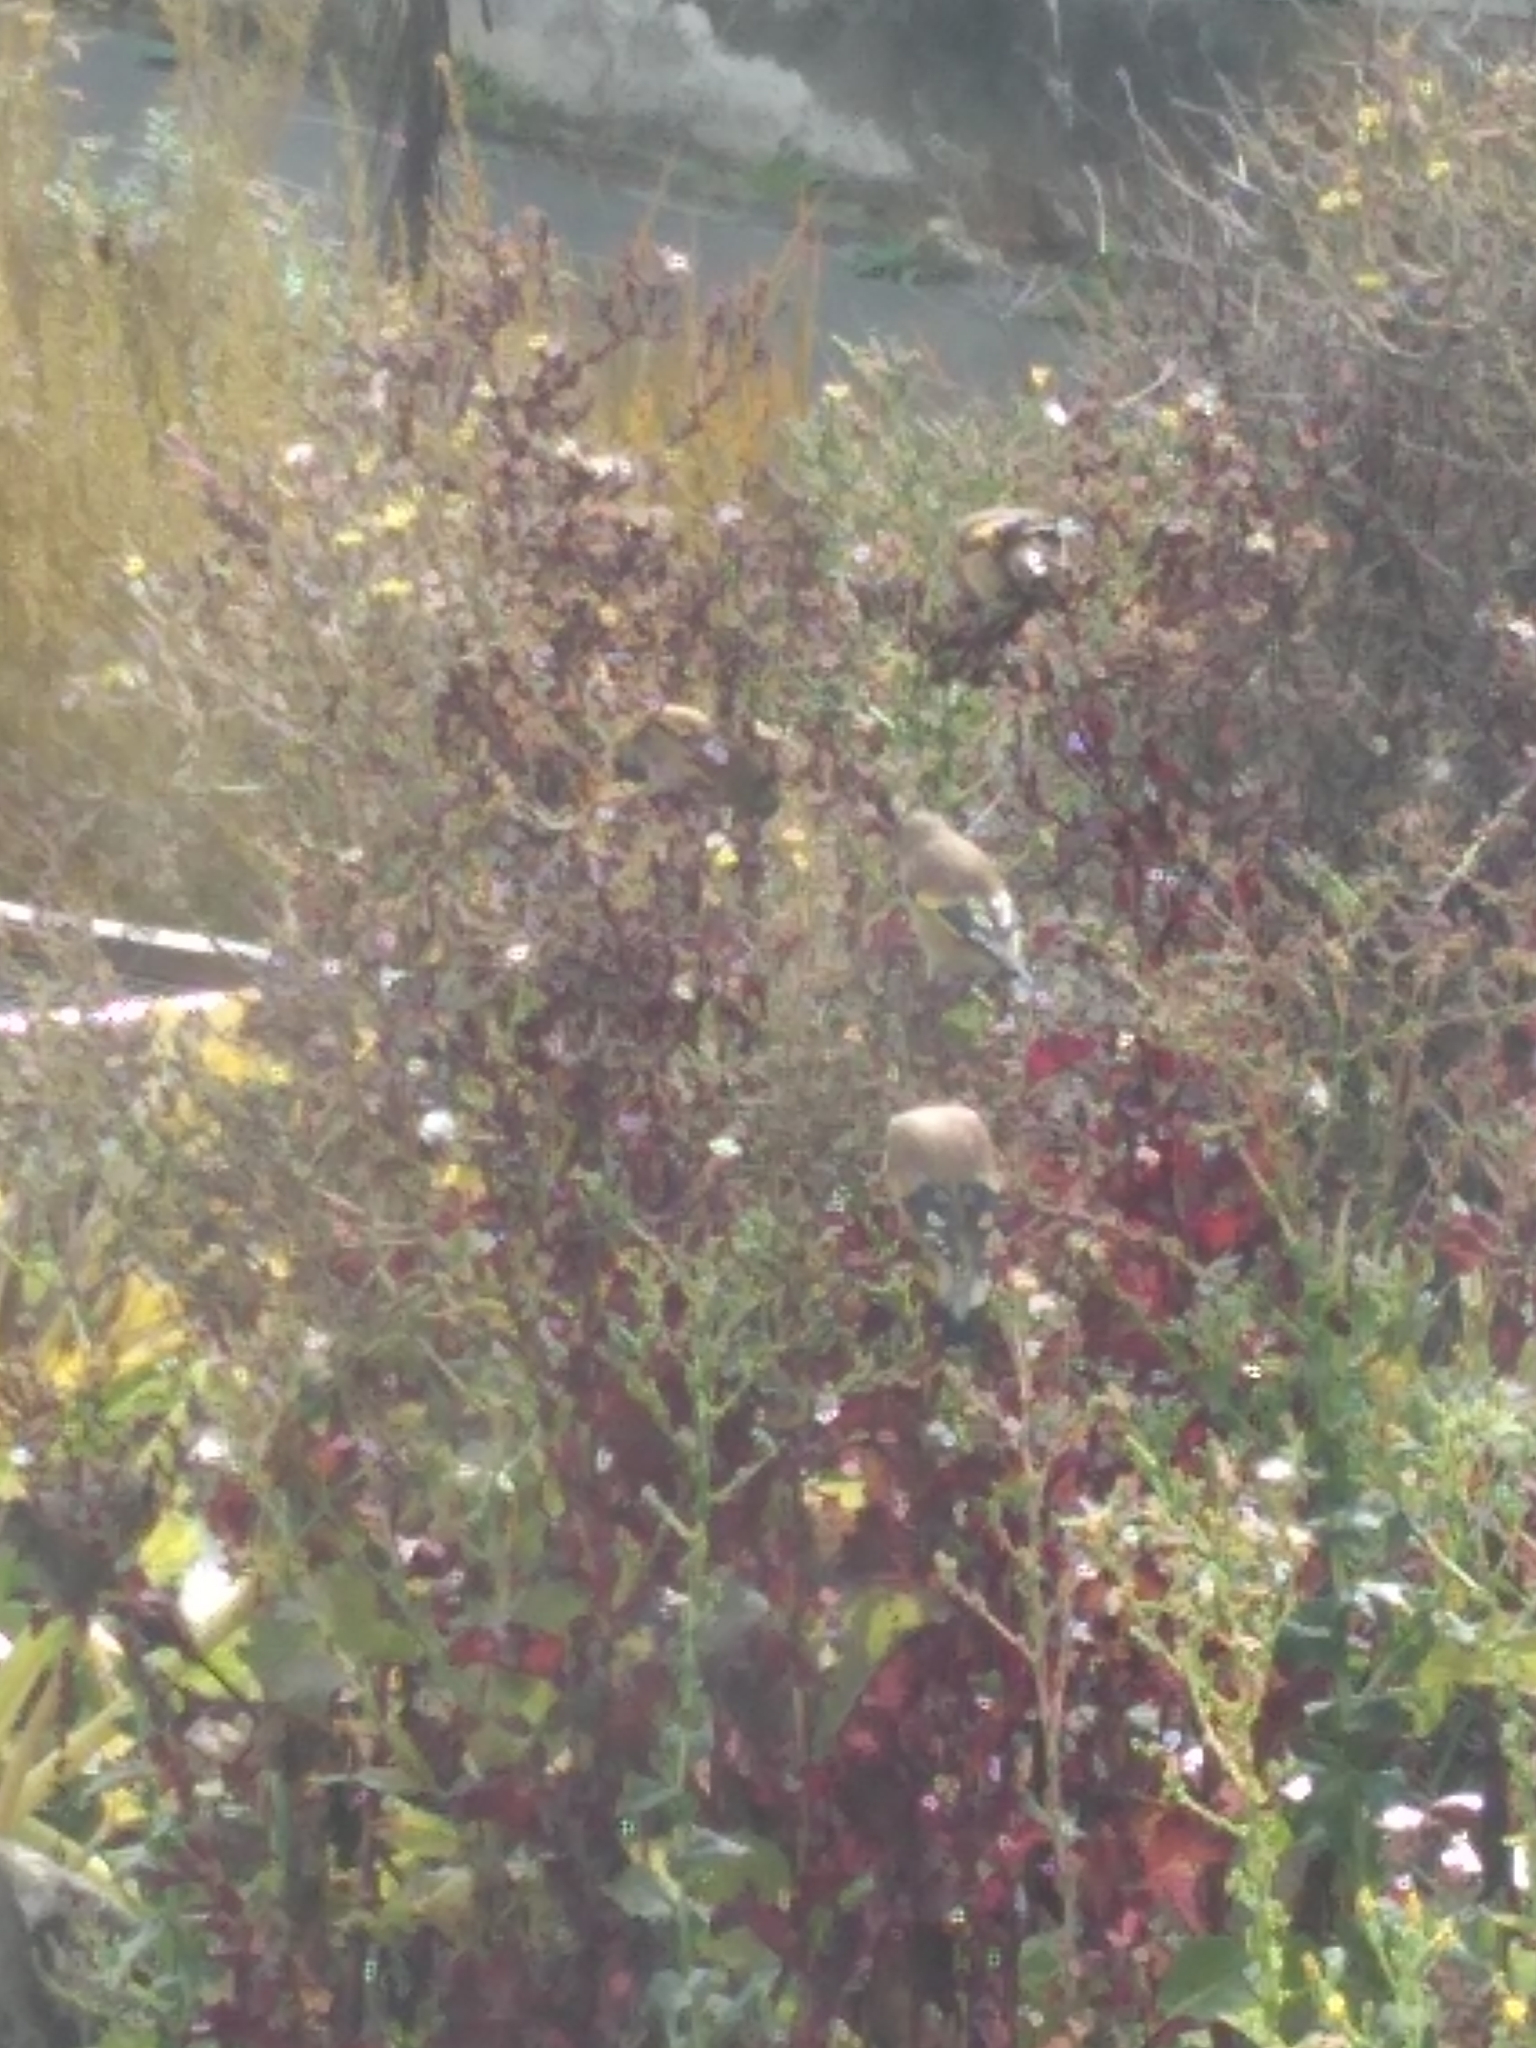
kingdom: Animalia
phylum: Chordata
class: Aves
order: Passeriformes
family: Fringillidae
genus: Carduelis
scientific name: Carduelis carduelis
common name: European goldfinch
